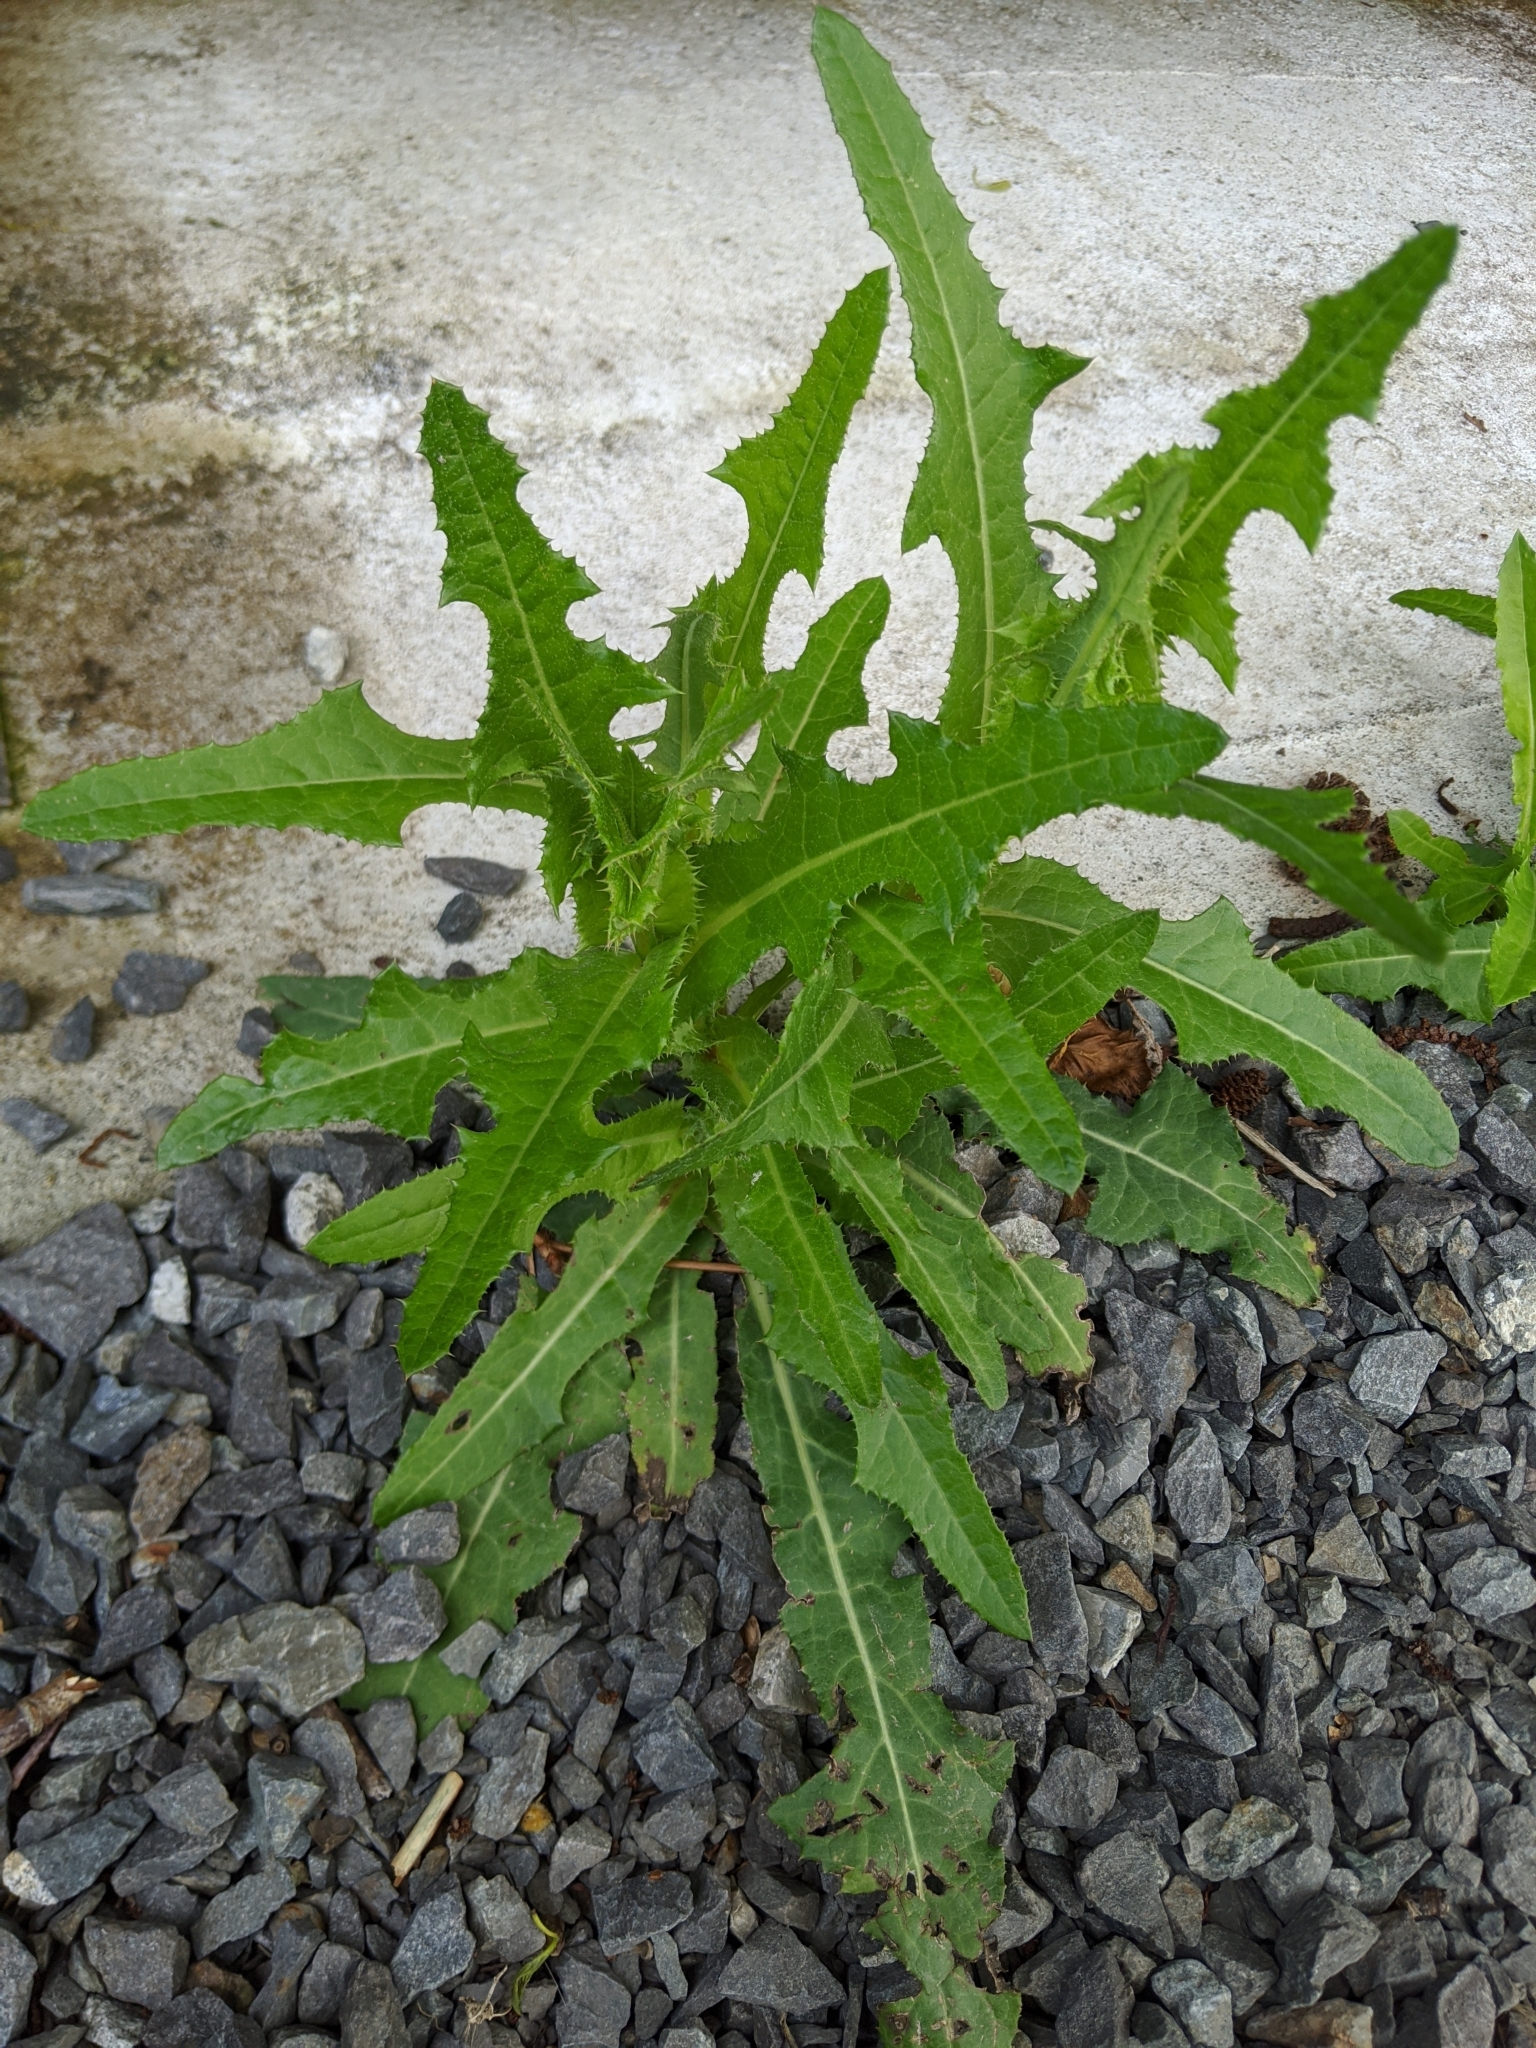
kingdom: Plantae
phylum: Tracheophyta
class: Magnoliopsida
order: Asterales
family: Asteraceae
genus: Sonchus
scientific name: Sonchus arvensis
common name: Perennial sow-thistle
